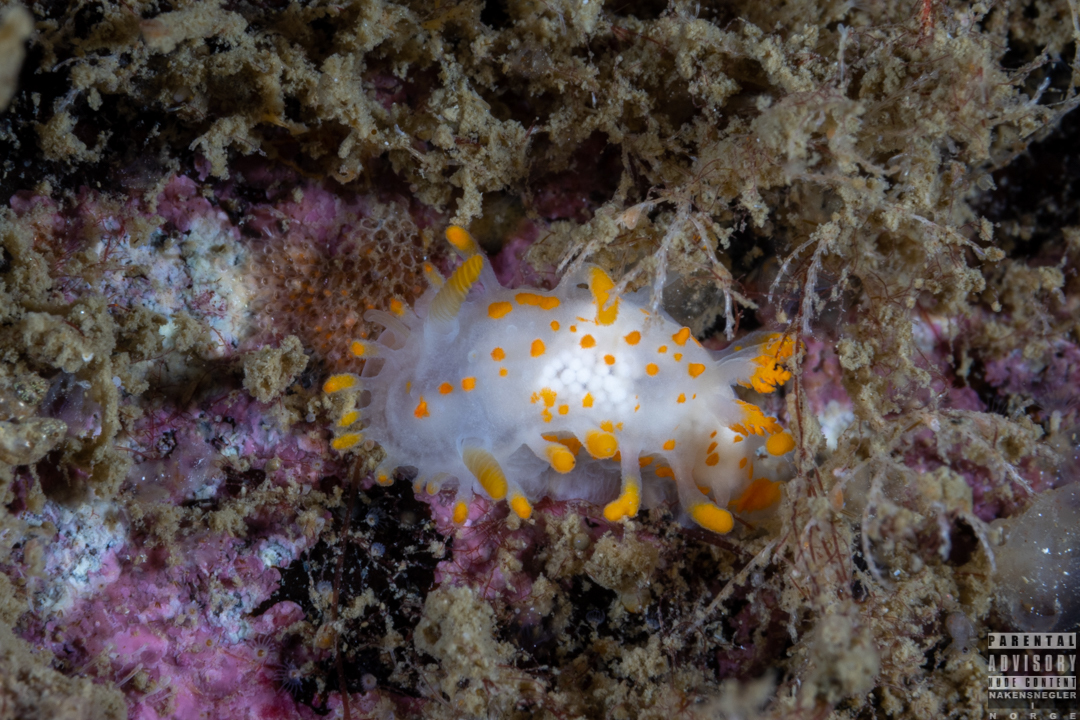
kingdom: Animalia
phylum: Mollusca
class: Gastropoda
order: Nudibranchia
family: Polyceridae
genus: Limacia
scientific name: Limacia clavigera
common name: Orange-clubbed sea slug
